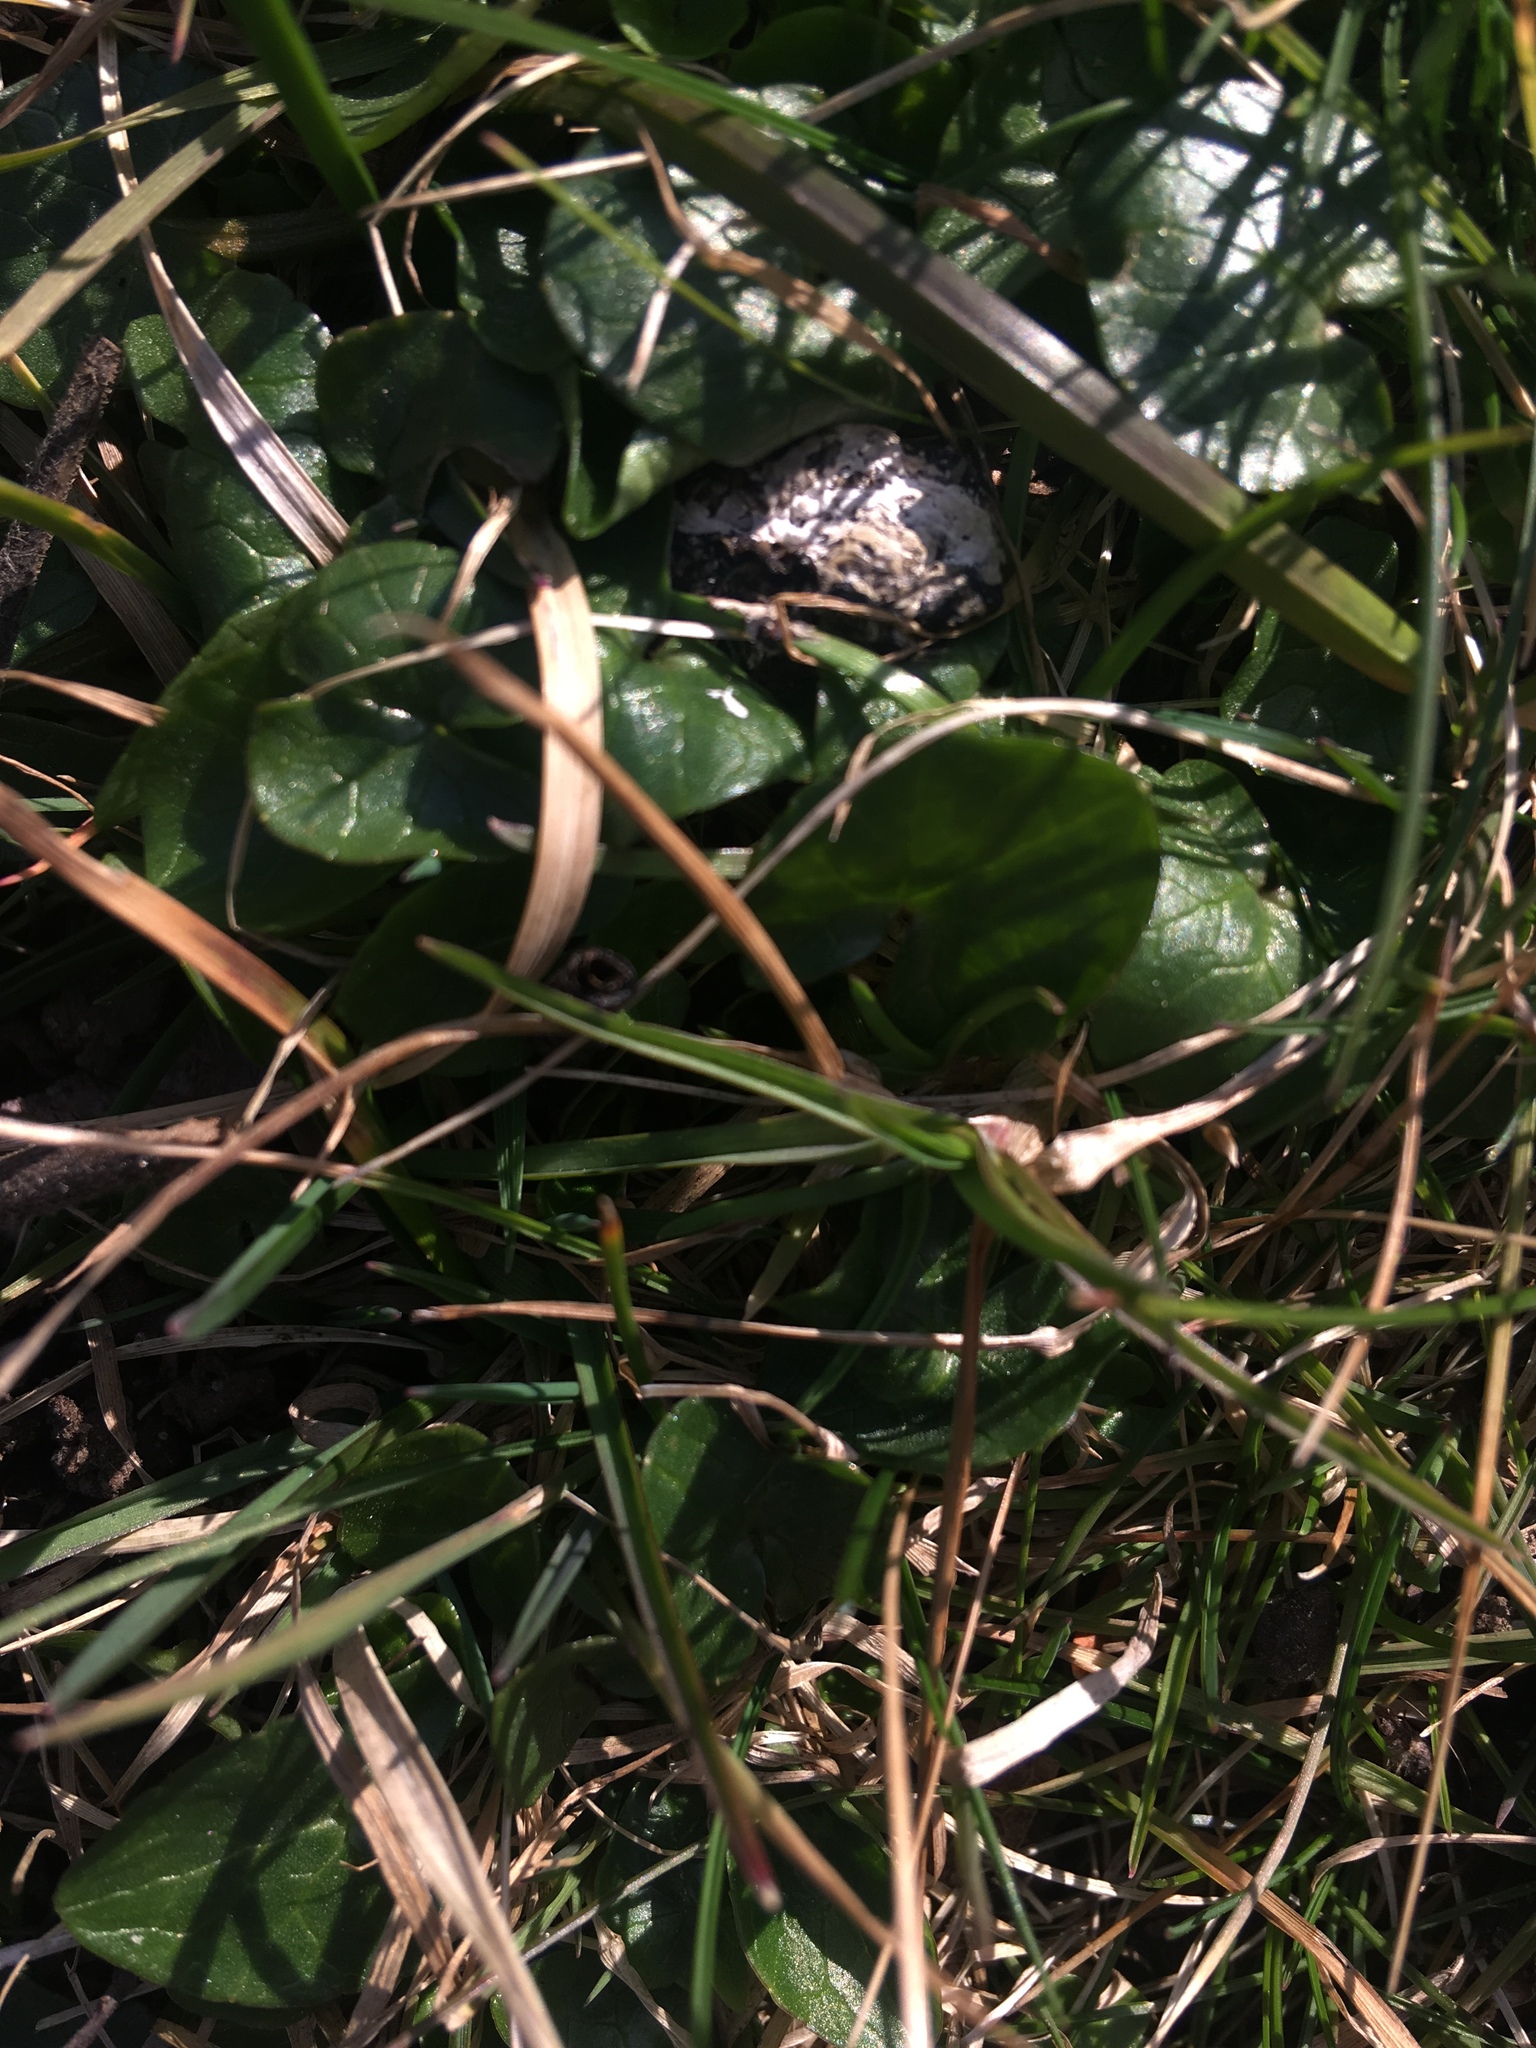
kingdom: Plantae
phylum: Tracheophyta
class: Magnoliopsida
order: Ranunculales
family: Ranunculaceae
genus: Ficaria
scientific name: Ficaria verna
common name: Lesser celandine
